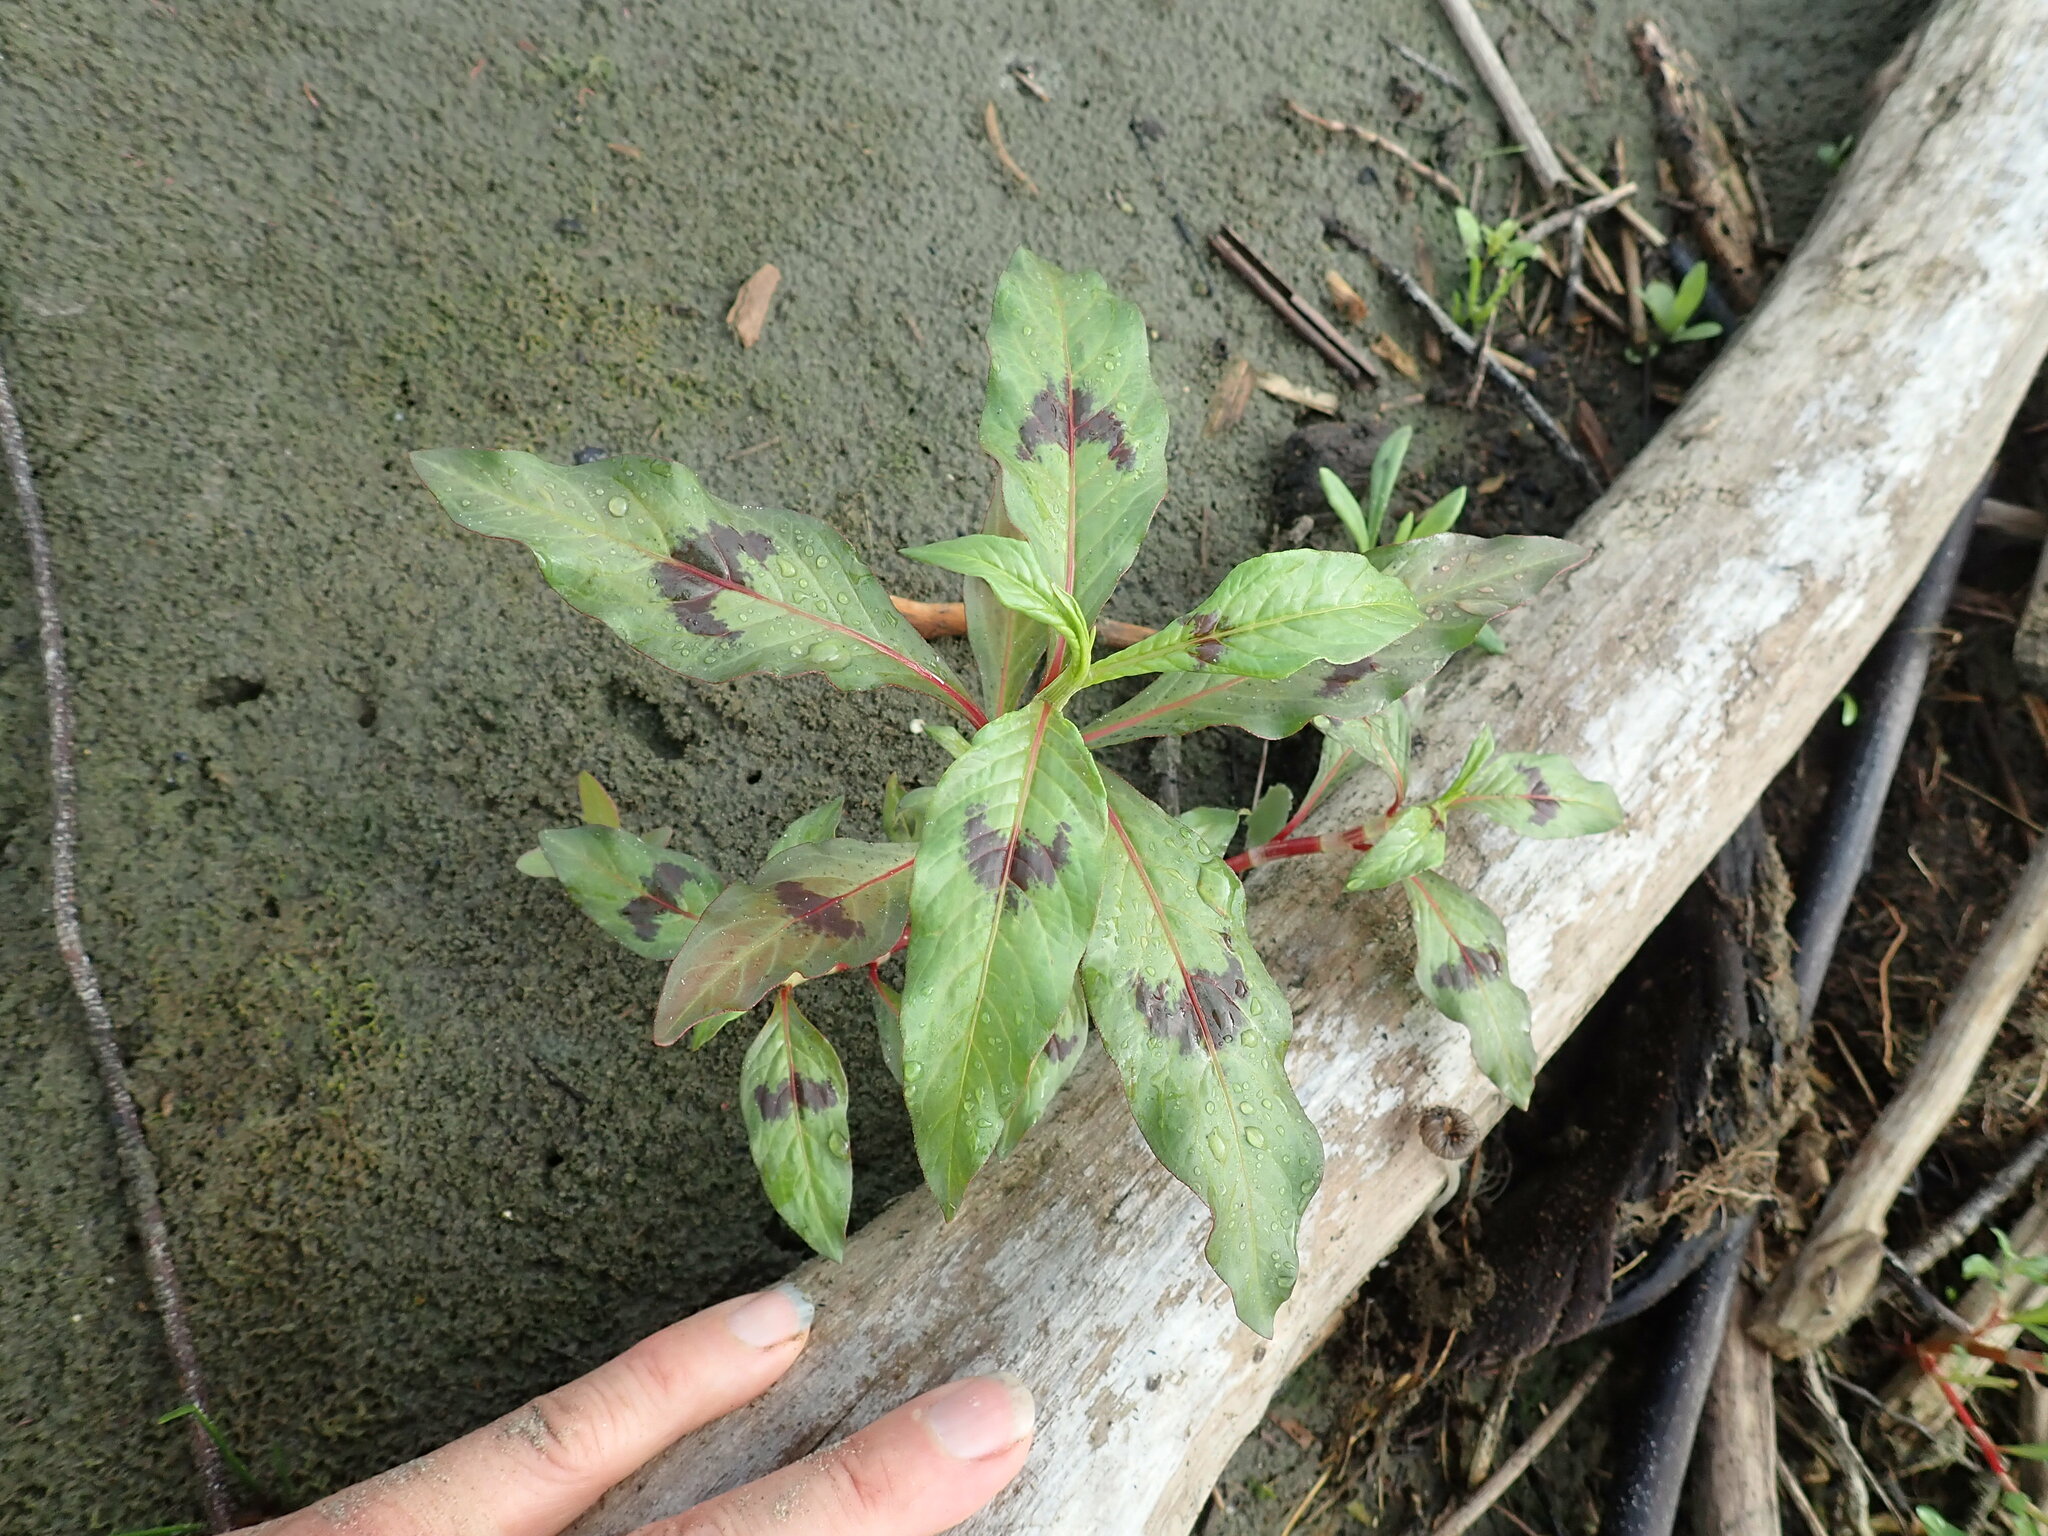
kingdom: Plantae
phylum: Tracheophyta
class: Magnoliopsida
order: Caryophyllales
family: Polygonaceae
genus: Persicaria
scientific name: Persicaria maculosa
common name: Redshank
